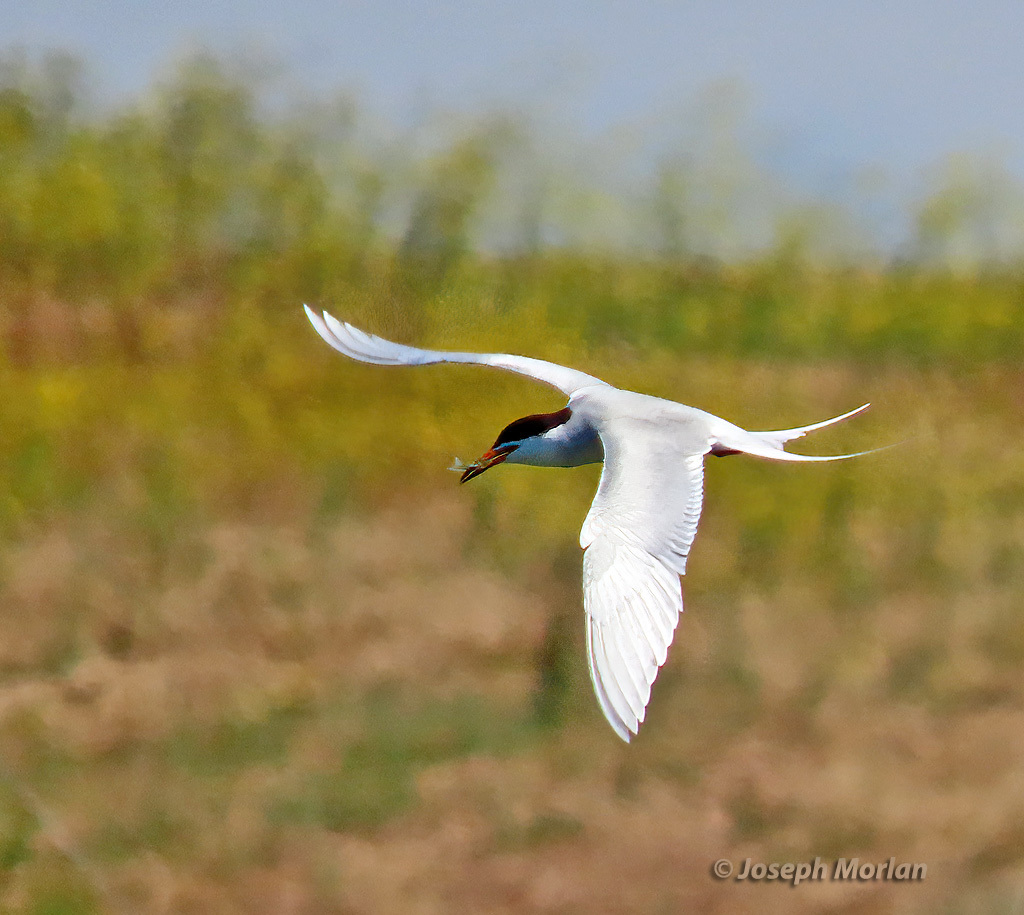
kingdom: Animalia
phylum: Chordata
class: Aves
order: Charadriiformes
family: Laridae
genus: Sterna
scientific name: Sterna forsteri
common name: Forster's tern
